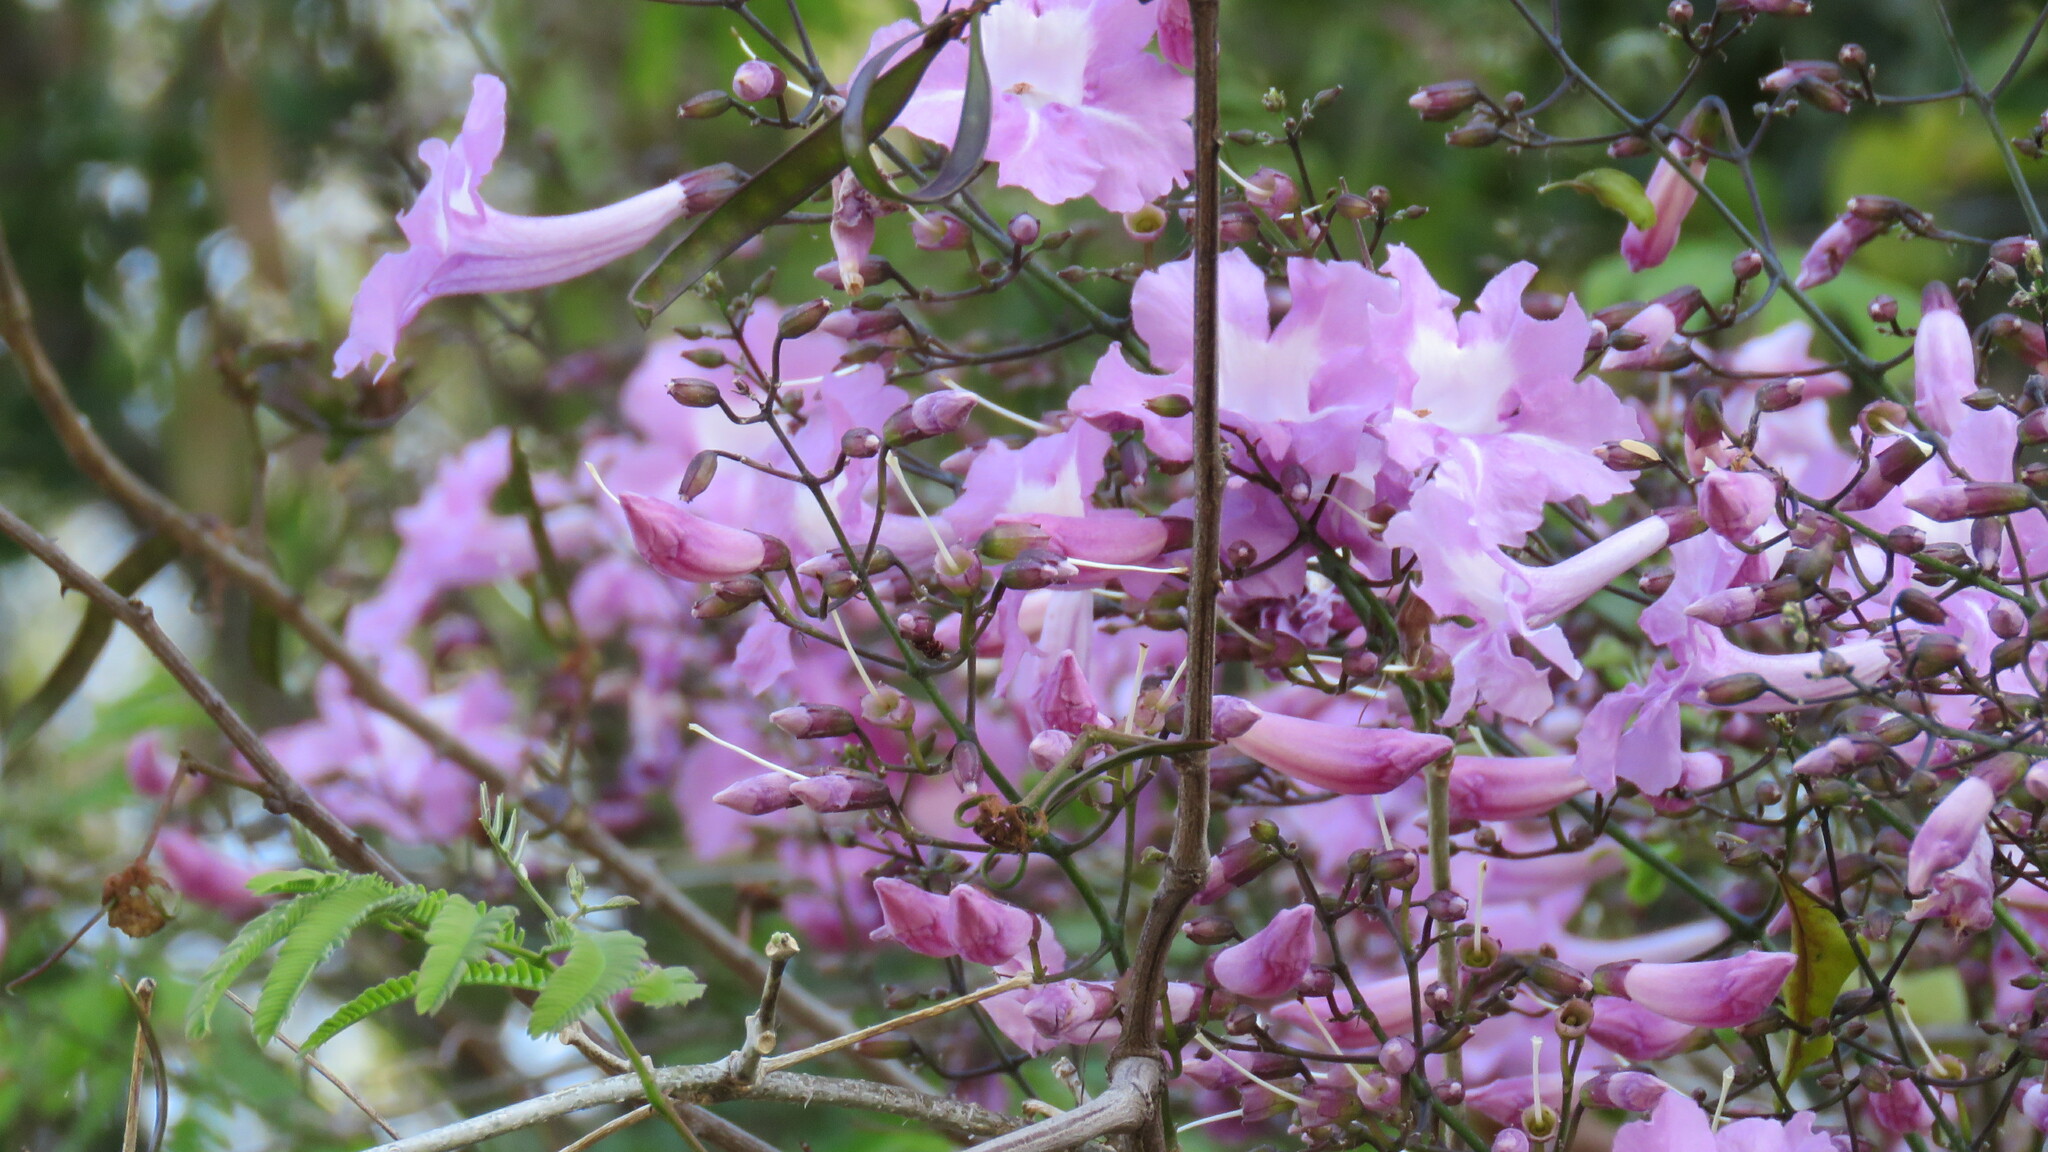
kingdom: Plantae
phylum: Tracheophyta
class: Magnoliopsida
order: Lamiales
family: Bignoniaceae
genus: Tanaecium
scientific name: Tanaecium dichotomum
